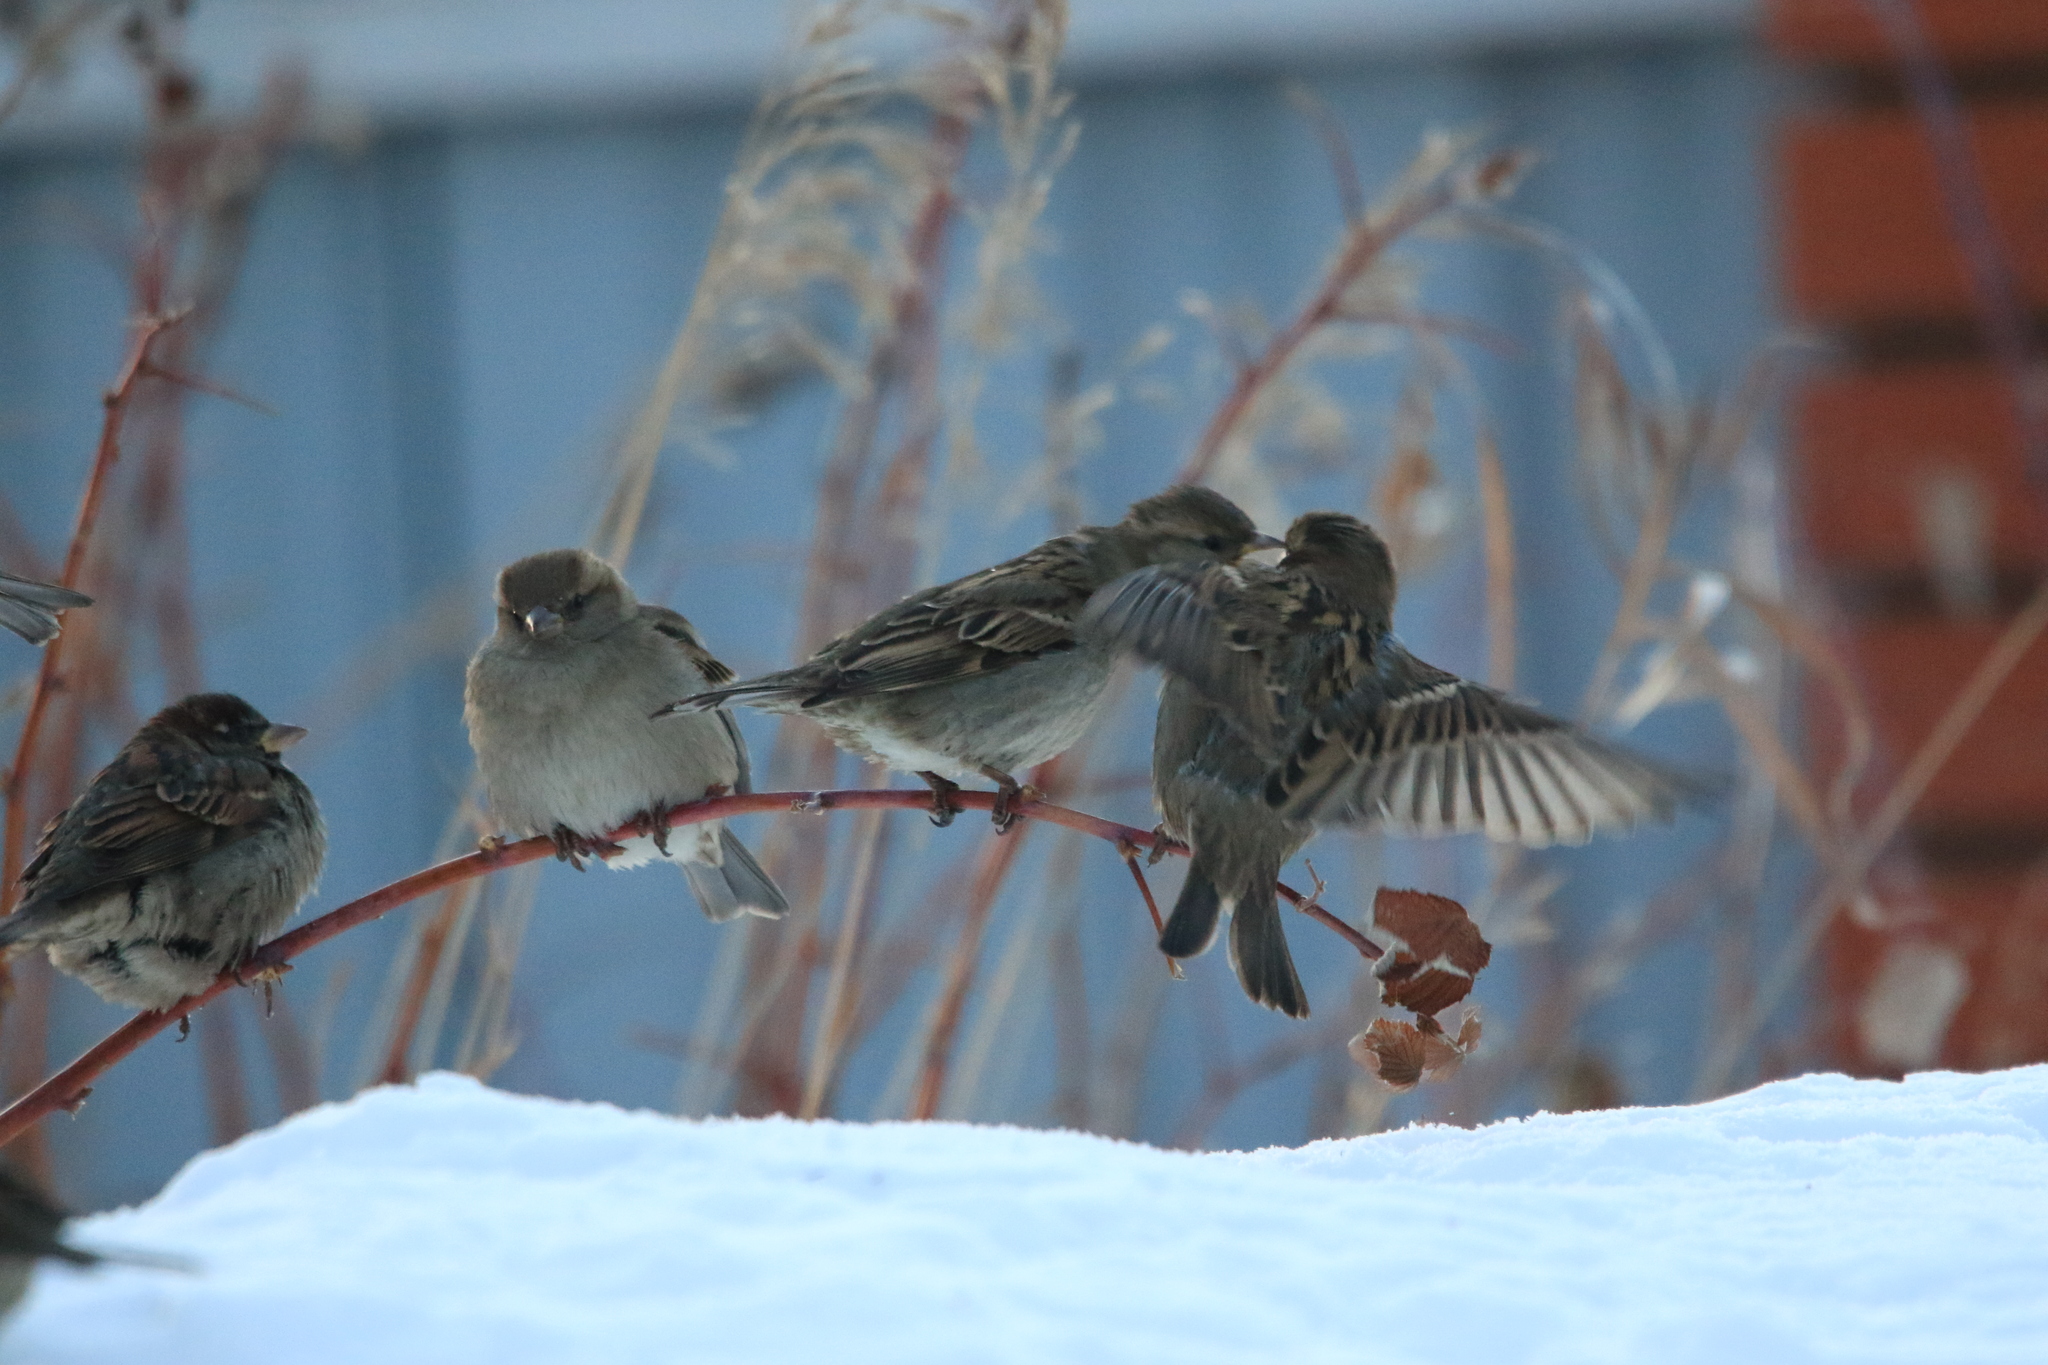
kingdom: Animalia
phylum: Chordata
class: Aves
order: Passeriformes
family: Passeridae
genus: Passer
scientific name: Passer domesticus
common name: House sparrow
